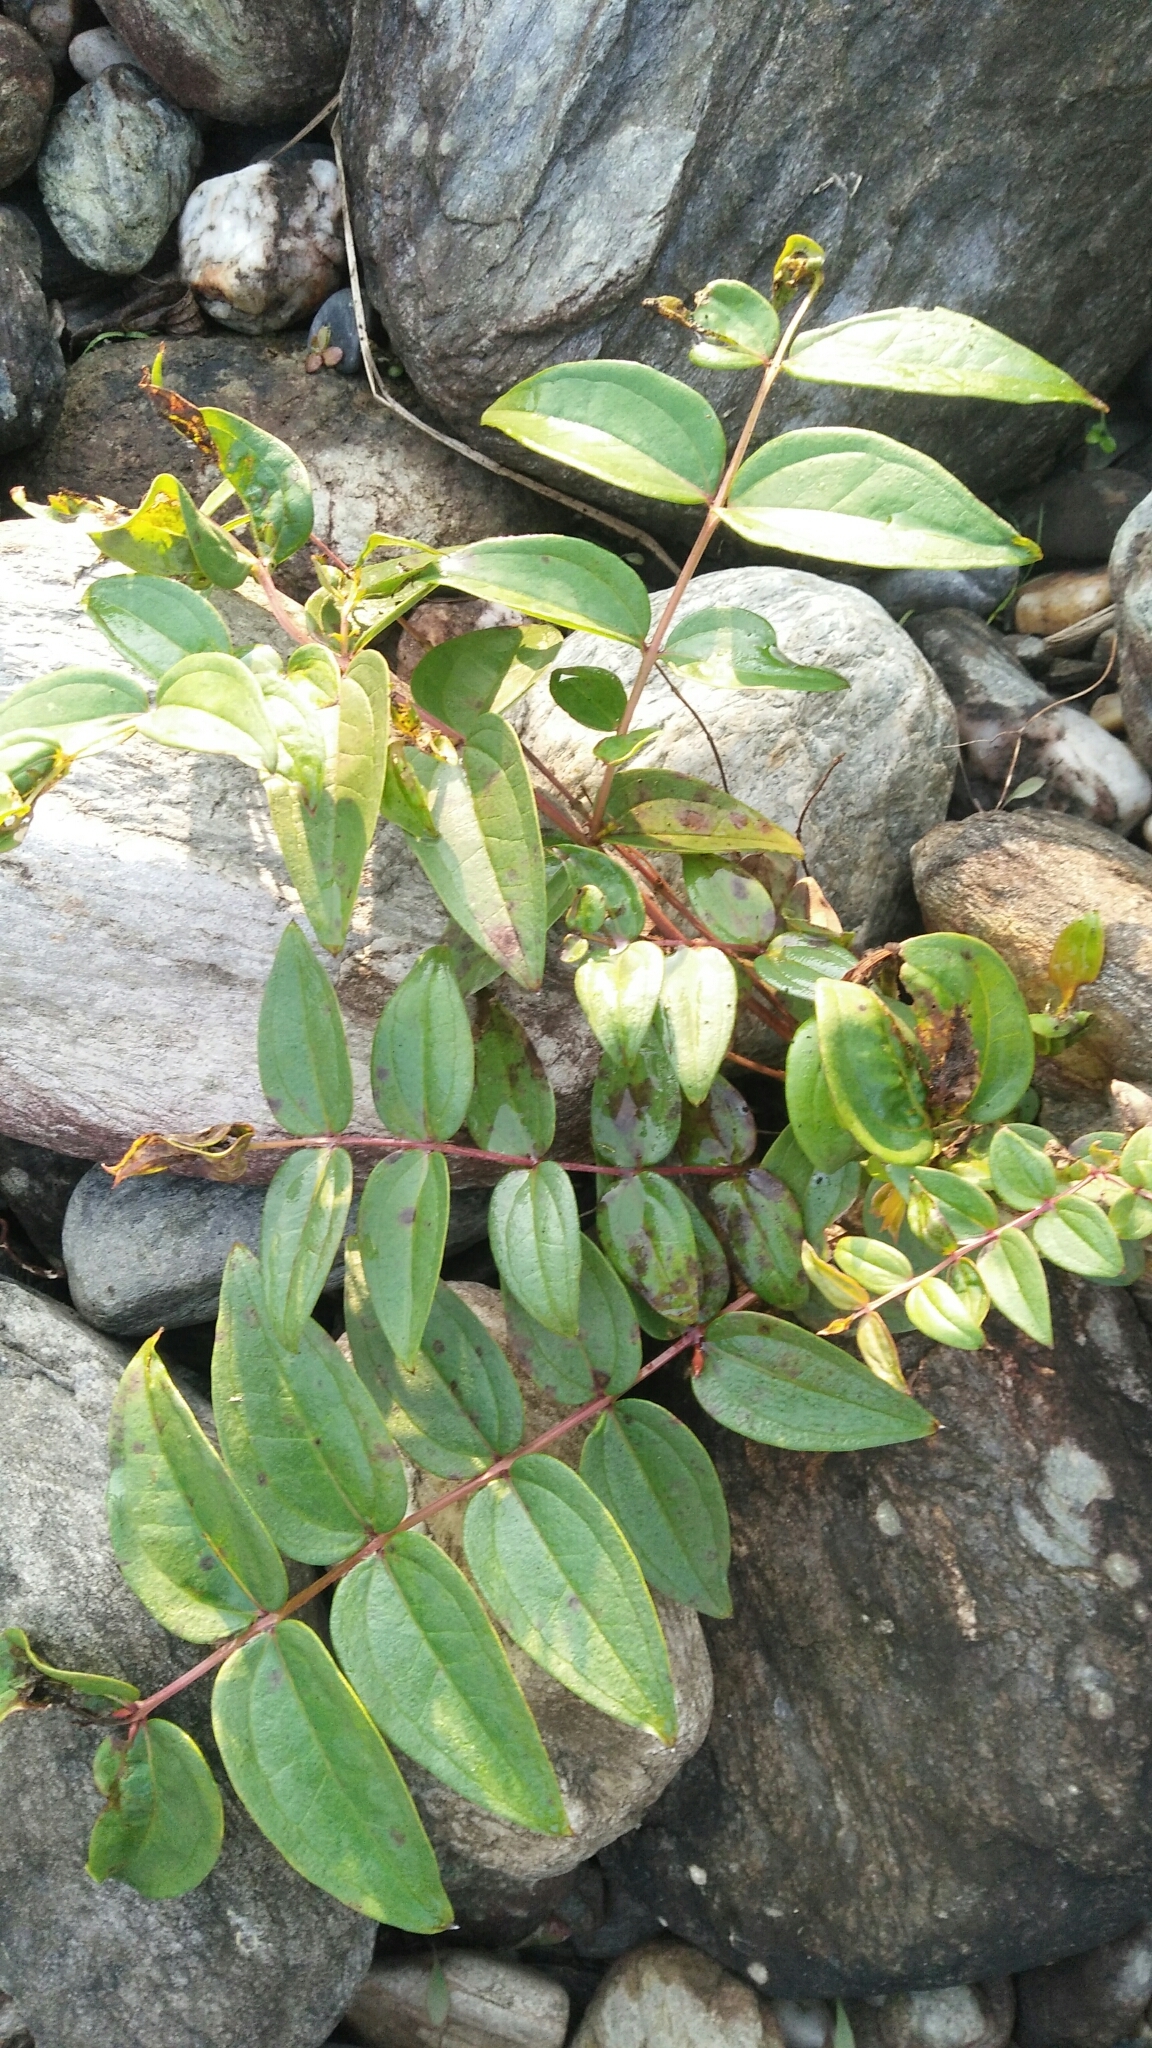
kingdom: Plantae
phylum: Tracheophyta
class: Magnoliopsida
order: Cucurbitales
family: Coriariaceae
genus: Coriaria
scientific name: Coriaria japonica
